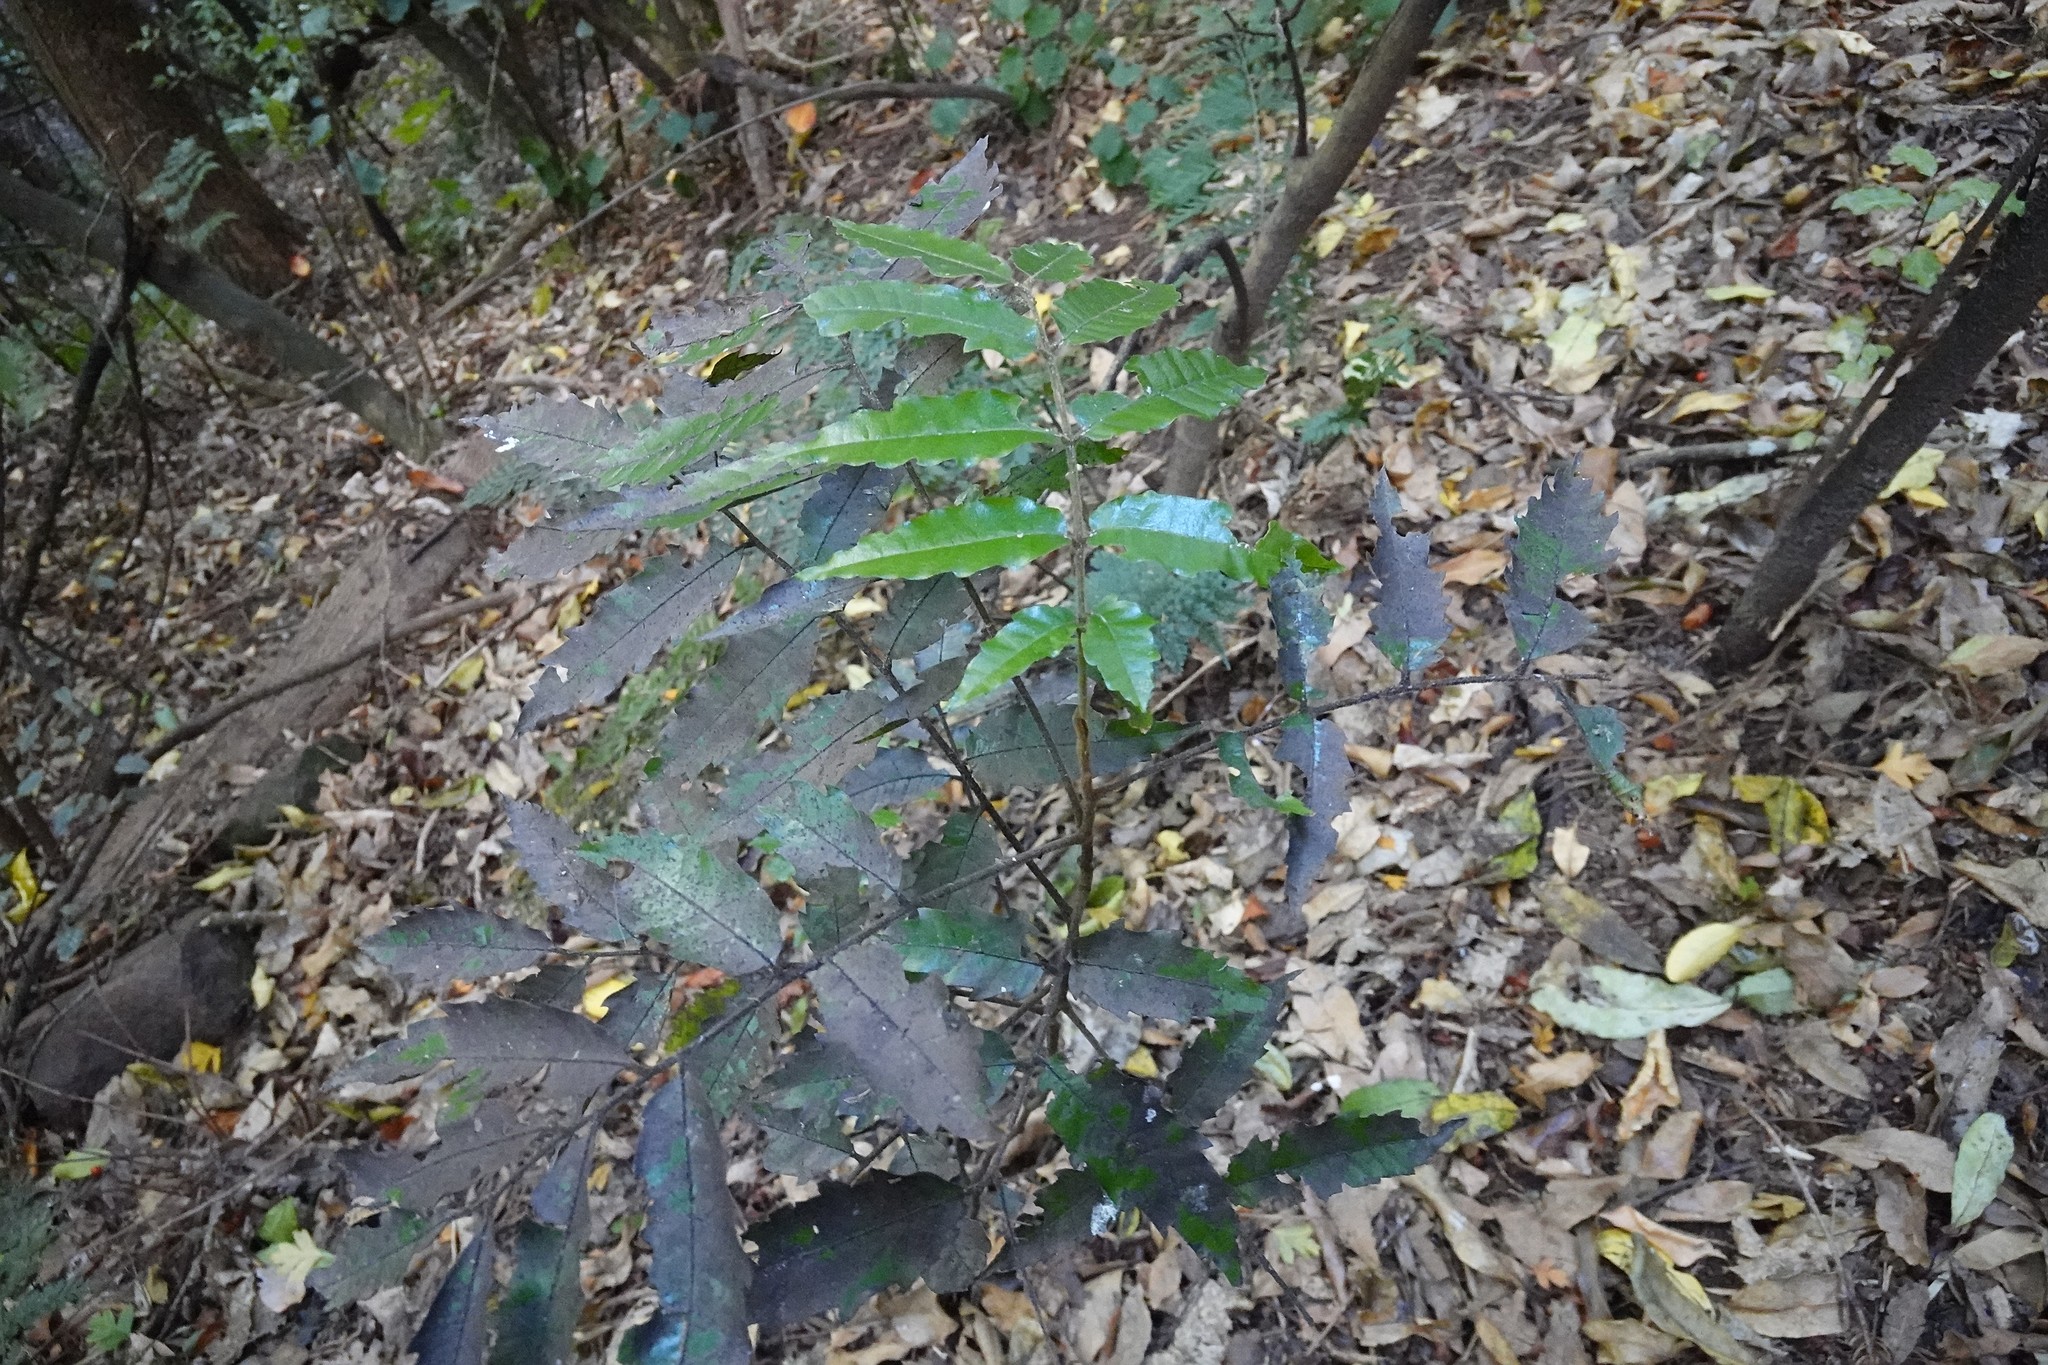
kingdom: Plantae
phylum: Tracheophyta
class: Magnoliopsida
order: Sapindales
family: Sapindaceae
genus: Alectryon
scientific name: Alectryon excelsus
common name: Three kings titoki
